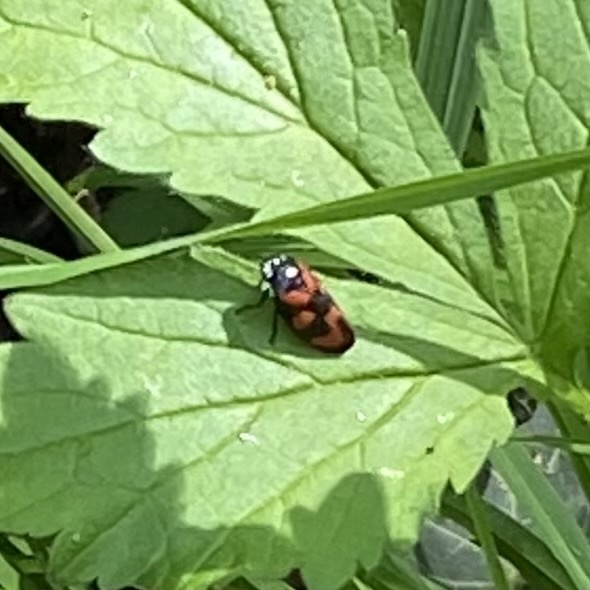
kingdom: Animalia
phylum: Arthropoda
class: Insecta
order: Hemiptera
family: Cercopidae
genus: Cercopis
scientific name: Cercopis vulnerata
